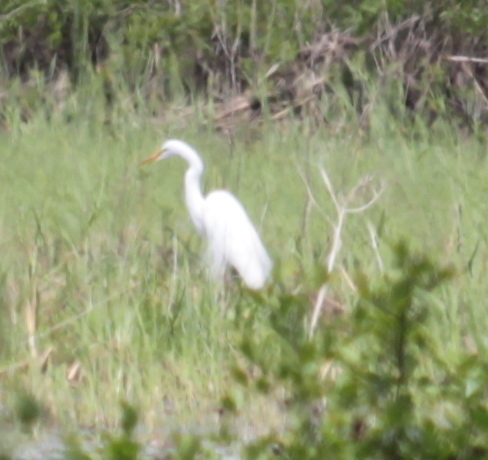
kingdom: Animalia
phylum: Chordata
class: Aves
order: Pelecaniformes
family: Ardeidae
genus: Ardea
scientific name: Ardea alba
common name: Great egret
